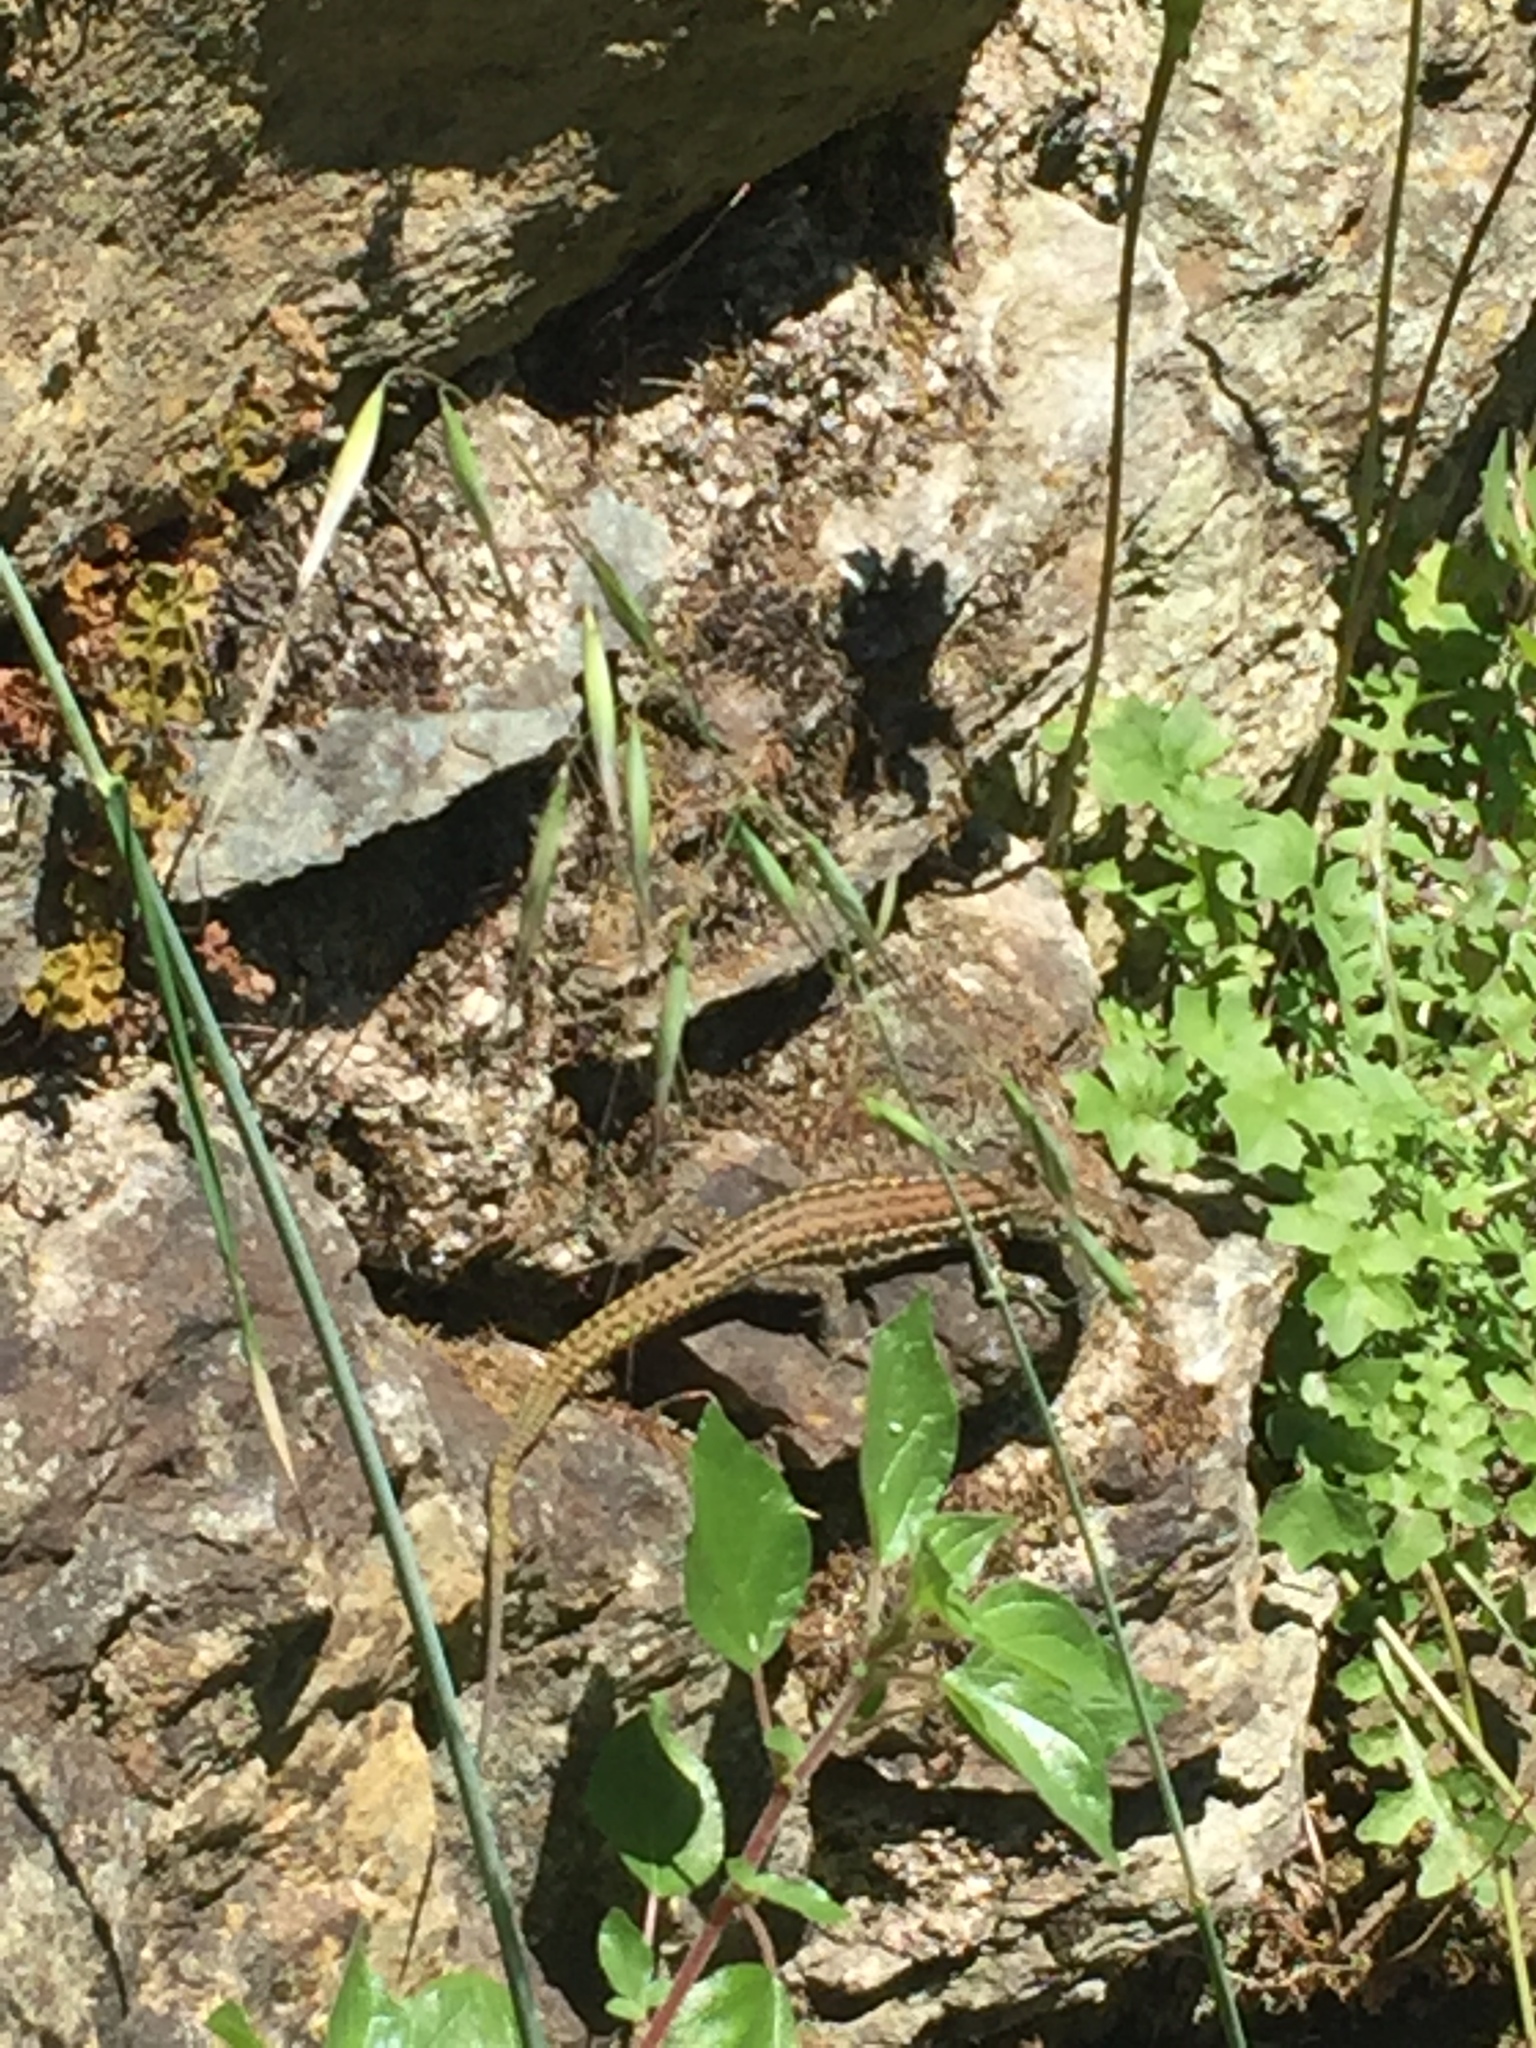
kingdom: Animalia
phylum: Chordata
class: Squamata
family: Lacertidae
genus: Podarcis
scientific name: Podarcis tiliguerta
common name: Tyrrhenian wall lizard
